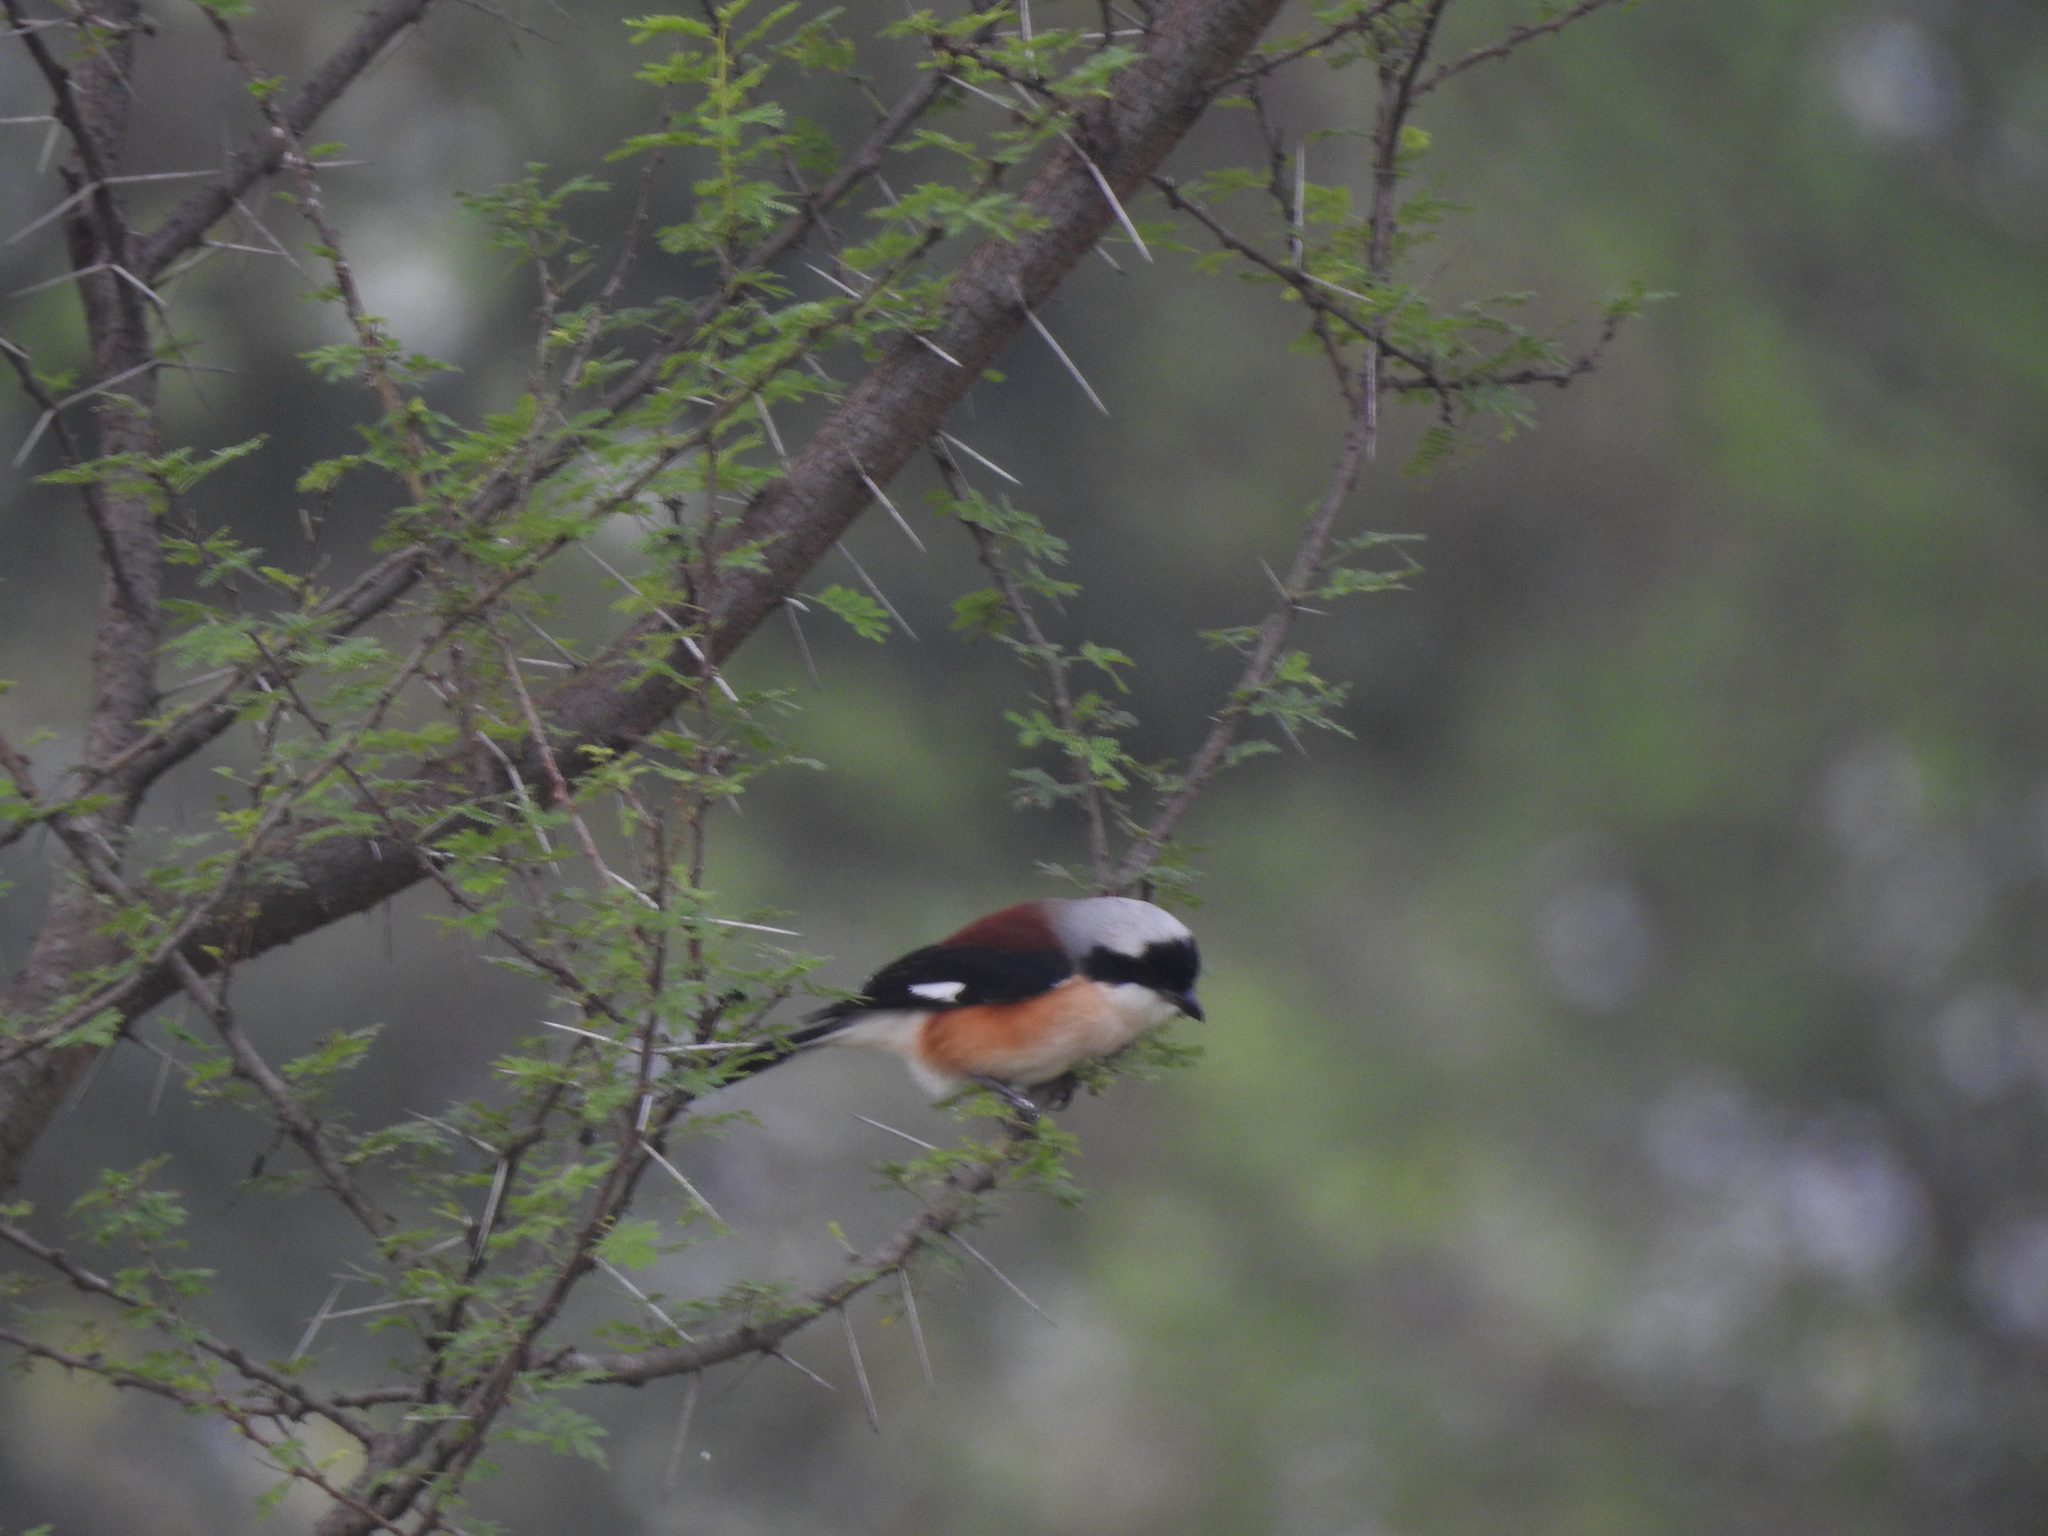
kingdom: Animalia
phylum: Chordata
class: Aves
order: Passeriformes
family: Laniidae
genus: Lanius
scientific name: Lanius vittatus
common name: Bay-backed shrike
